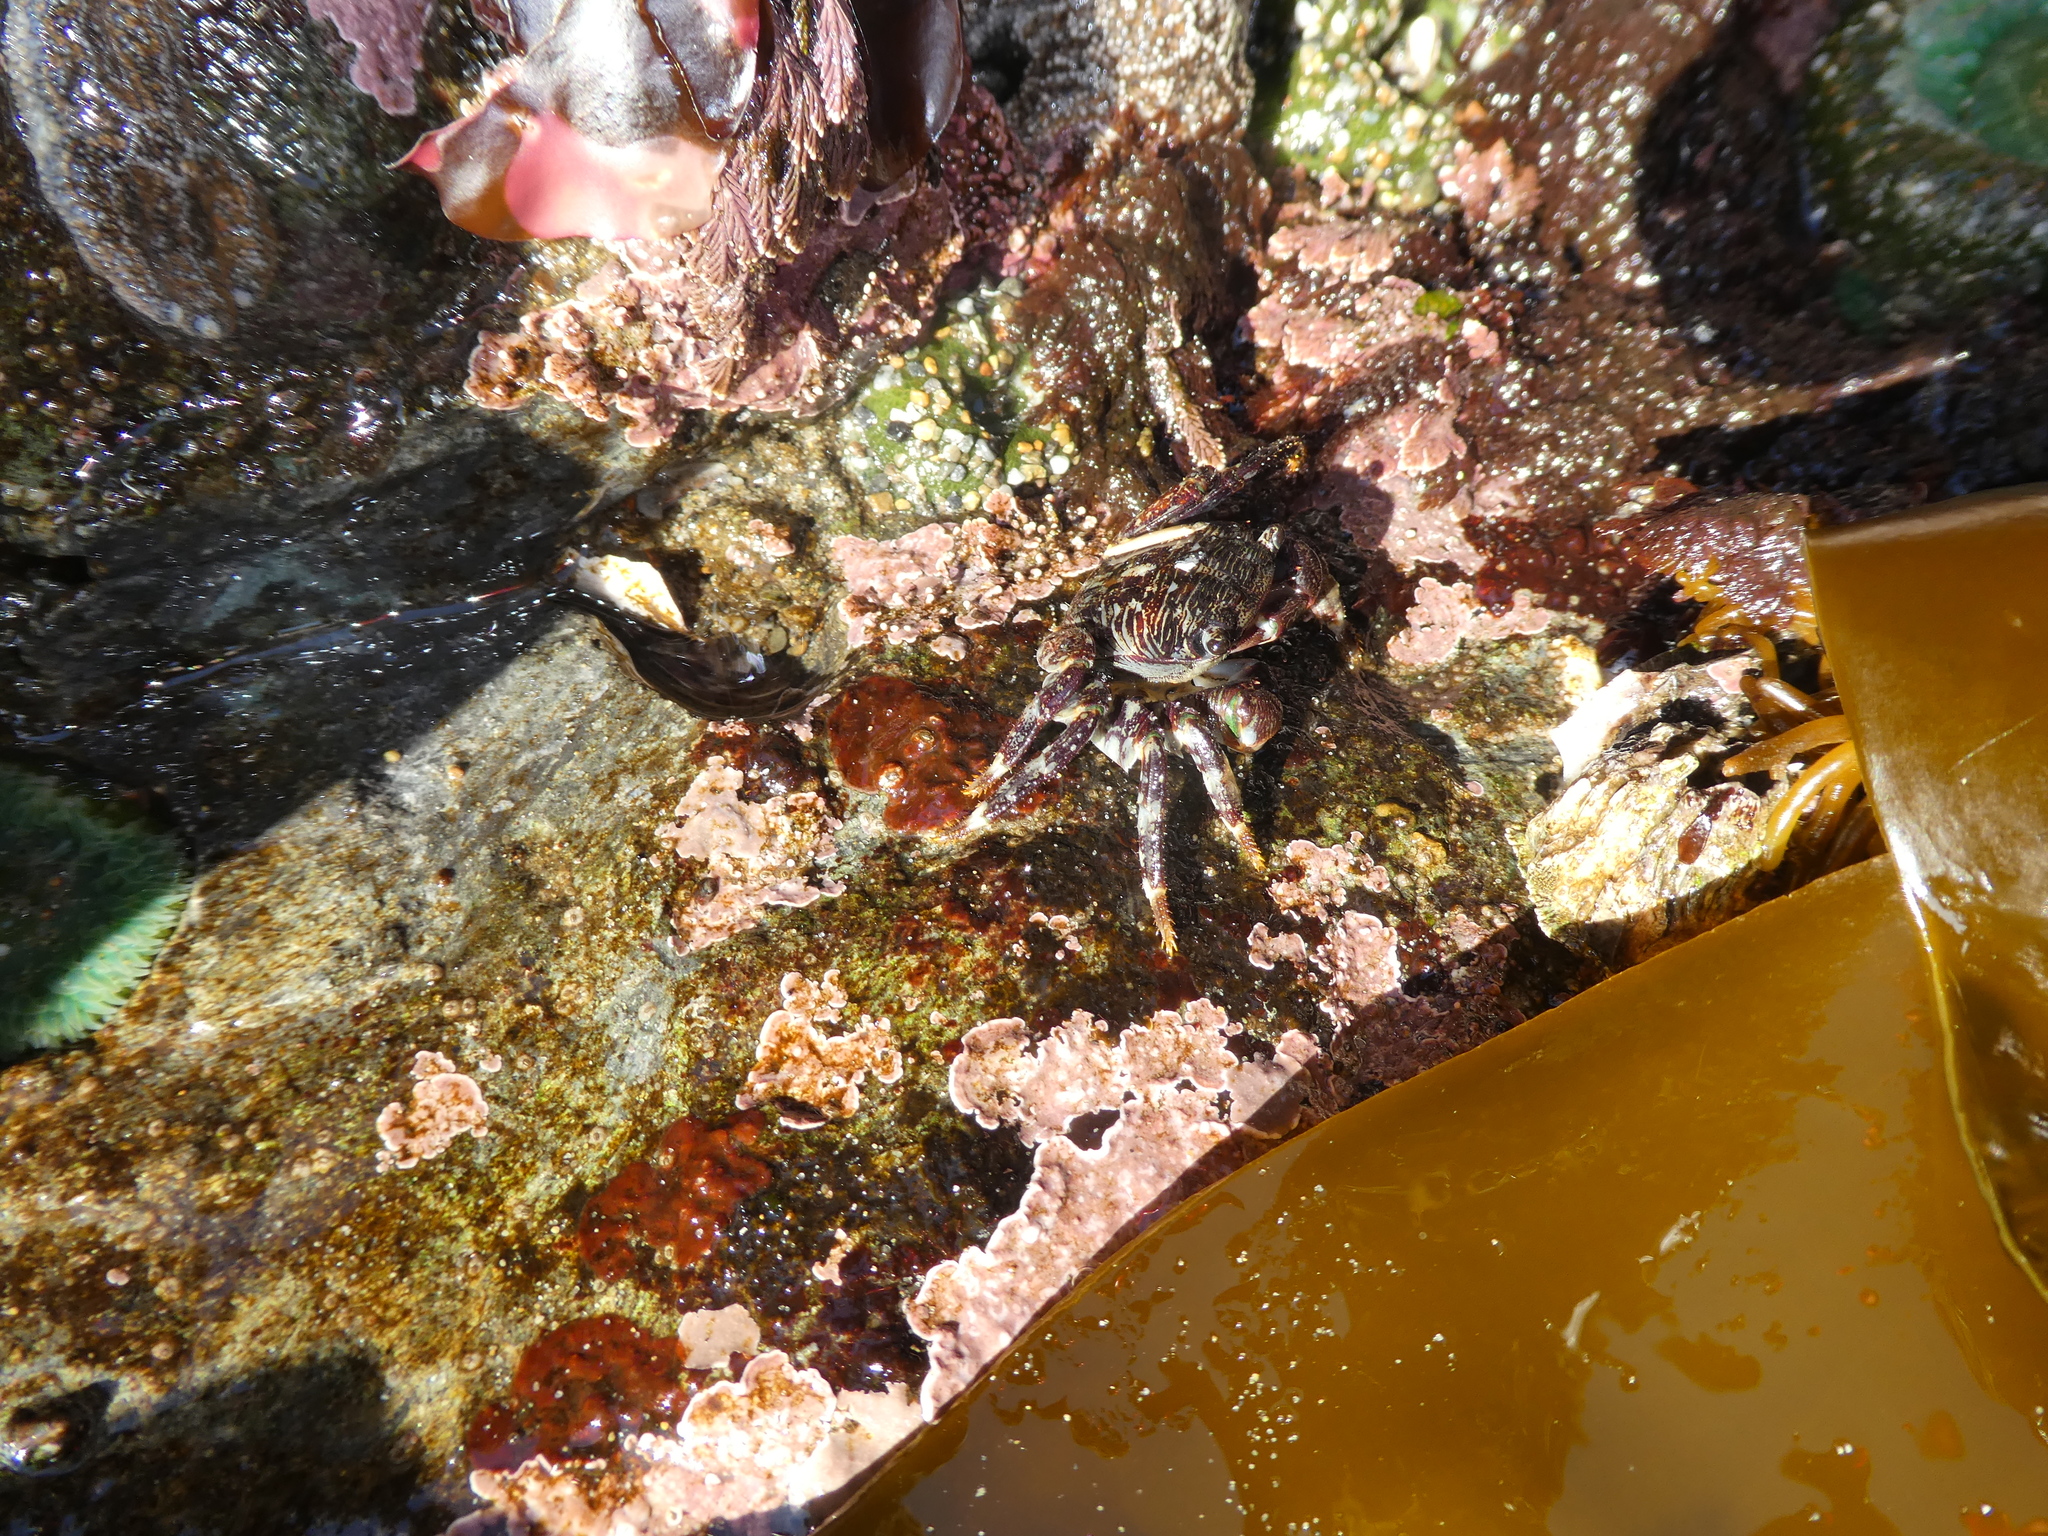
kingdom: Animalia
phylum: Arthropoda
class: Malacostraca
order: Decapoda
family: Grapsidae
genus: Pachygrapsus
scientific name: Pachygrapsus crassipes
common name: Striped shore crab
